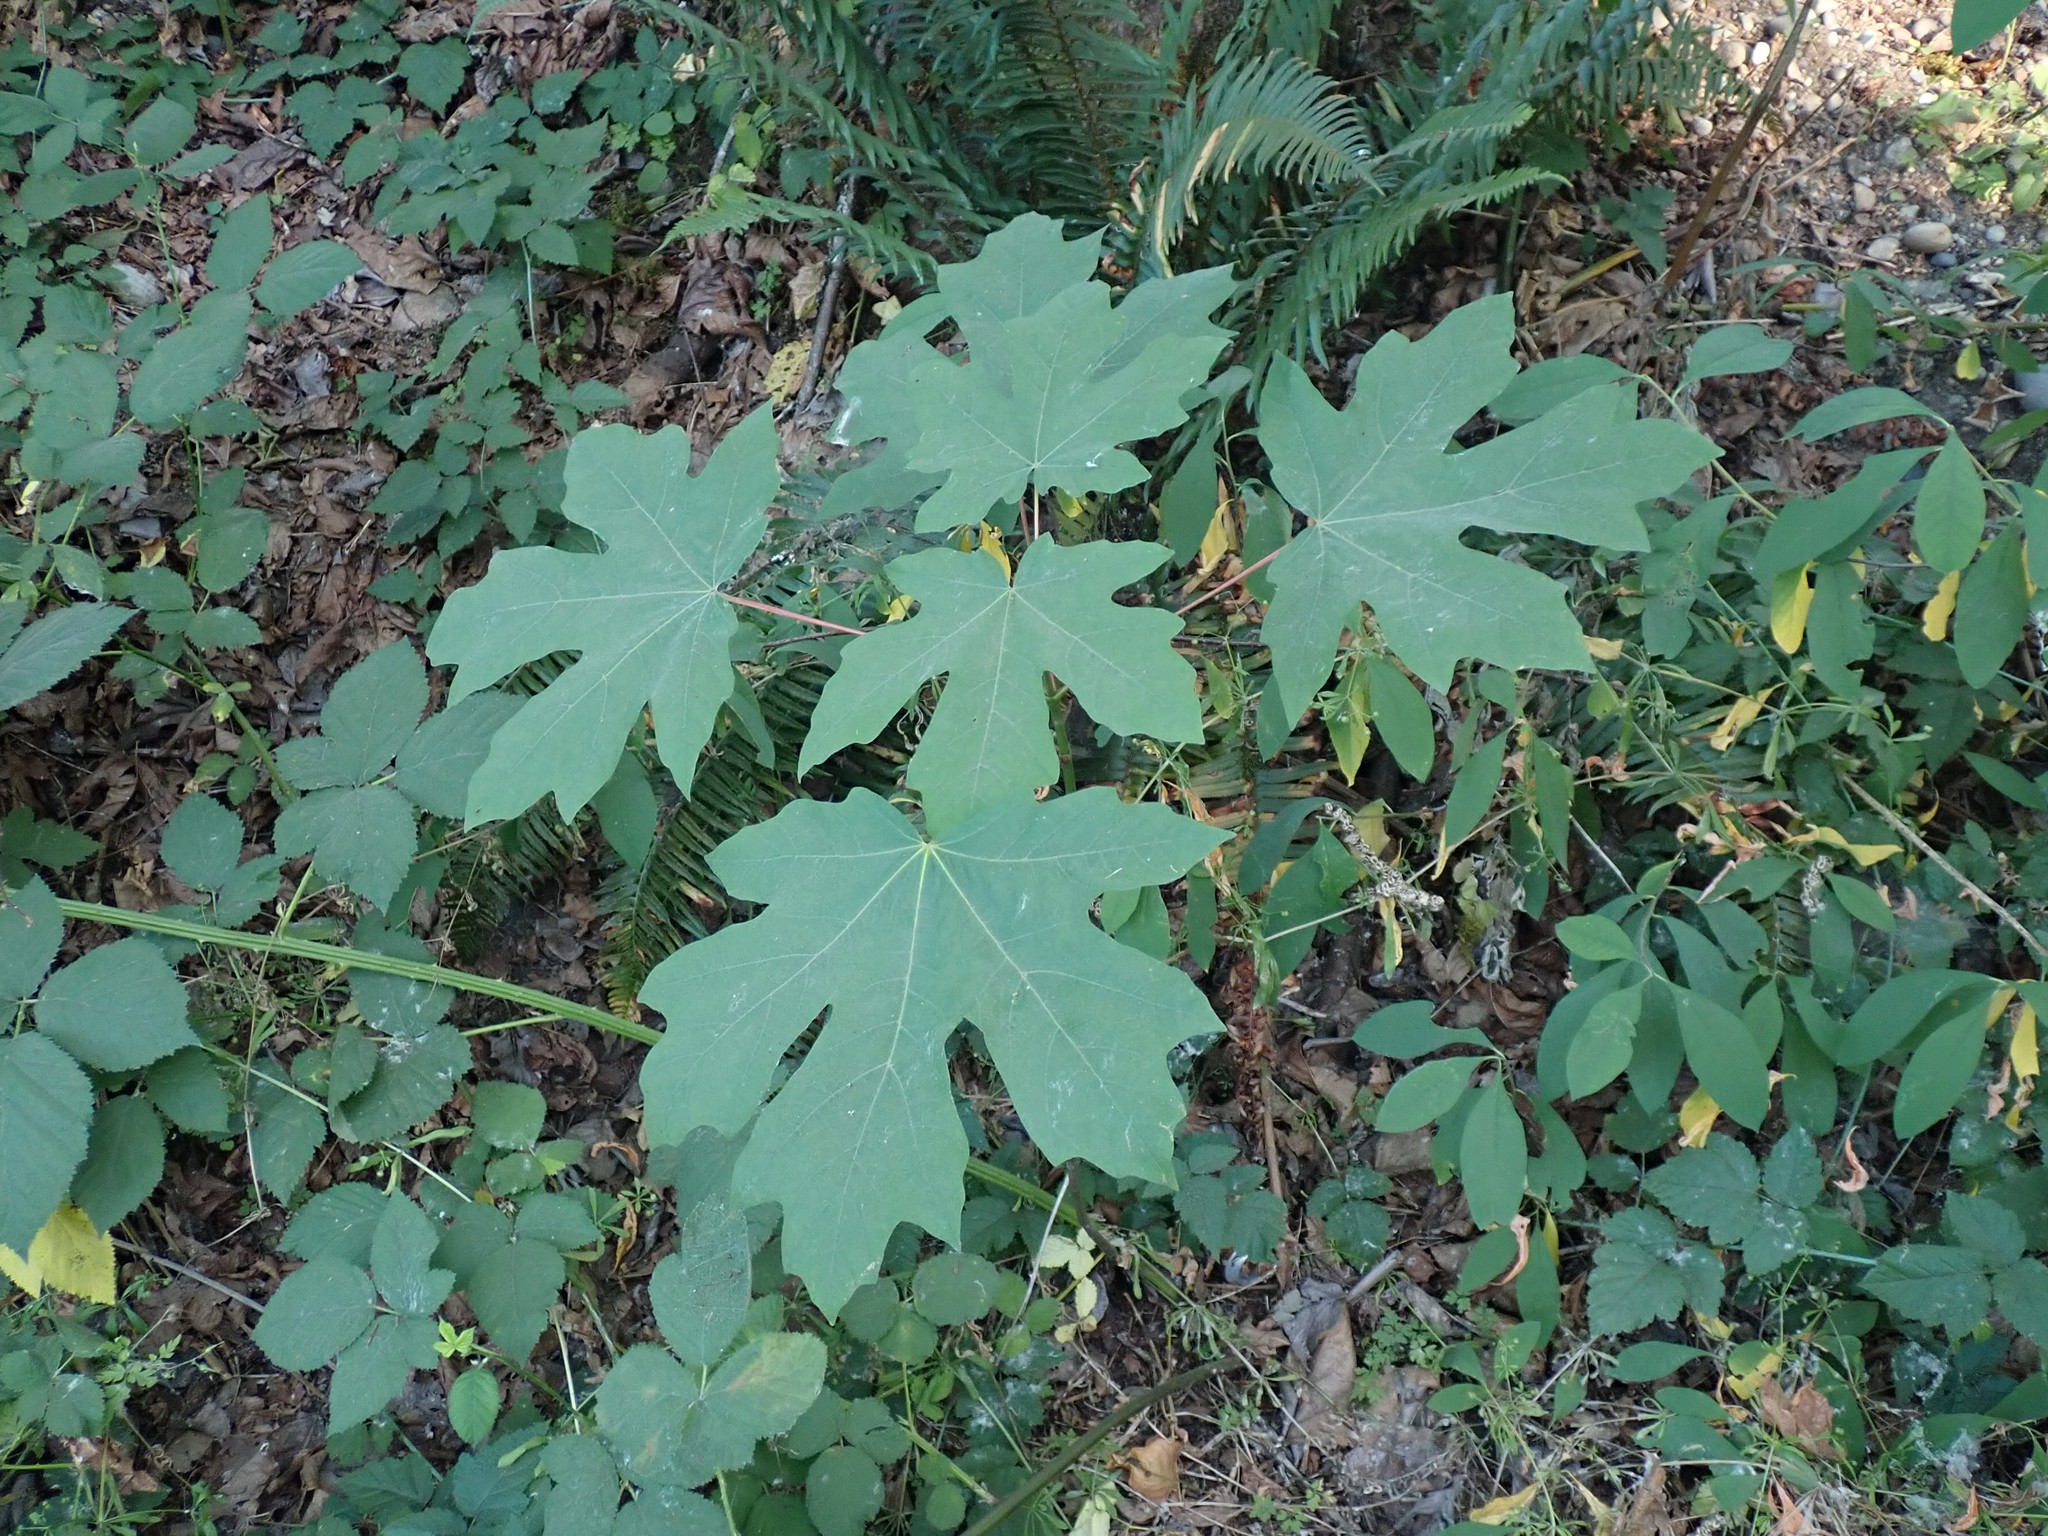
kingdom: Plantae
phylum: Tracheophyta
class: Magnoliopsida
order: Sapindales
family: Sapindaceae
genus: Acer
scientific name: Acer macrophyllum
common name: Oregon maple
